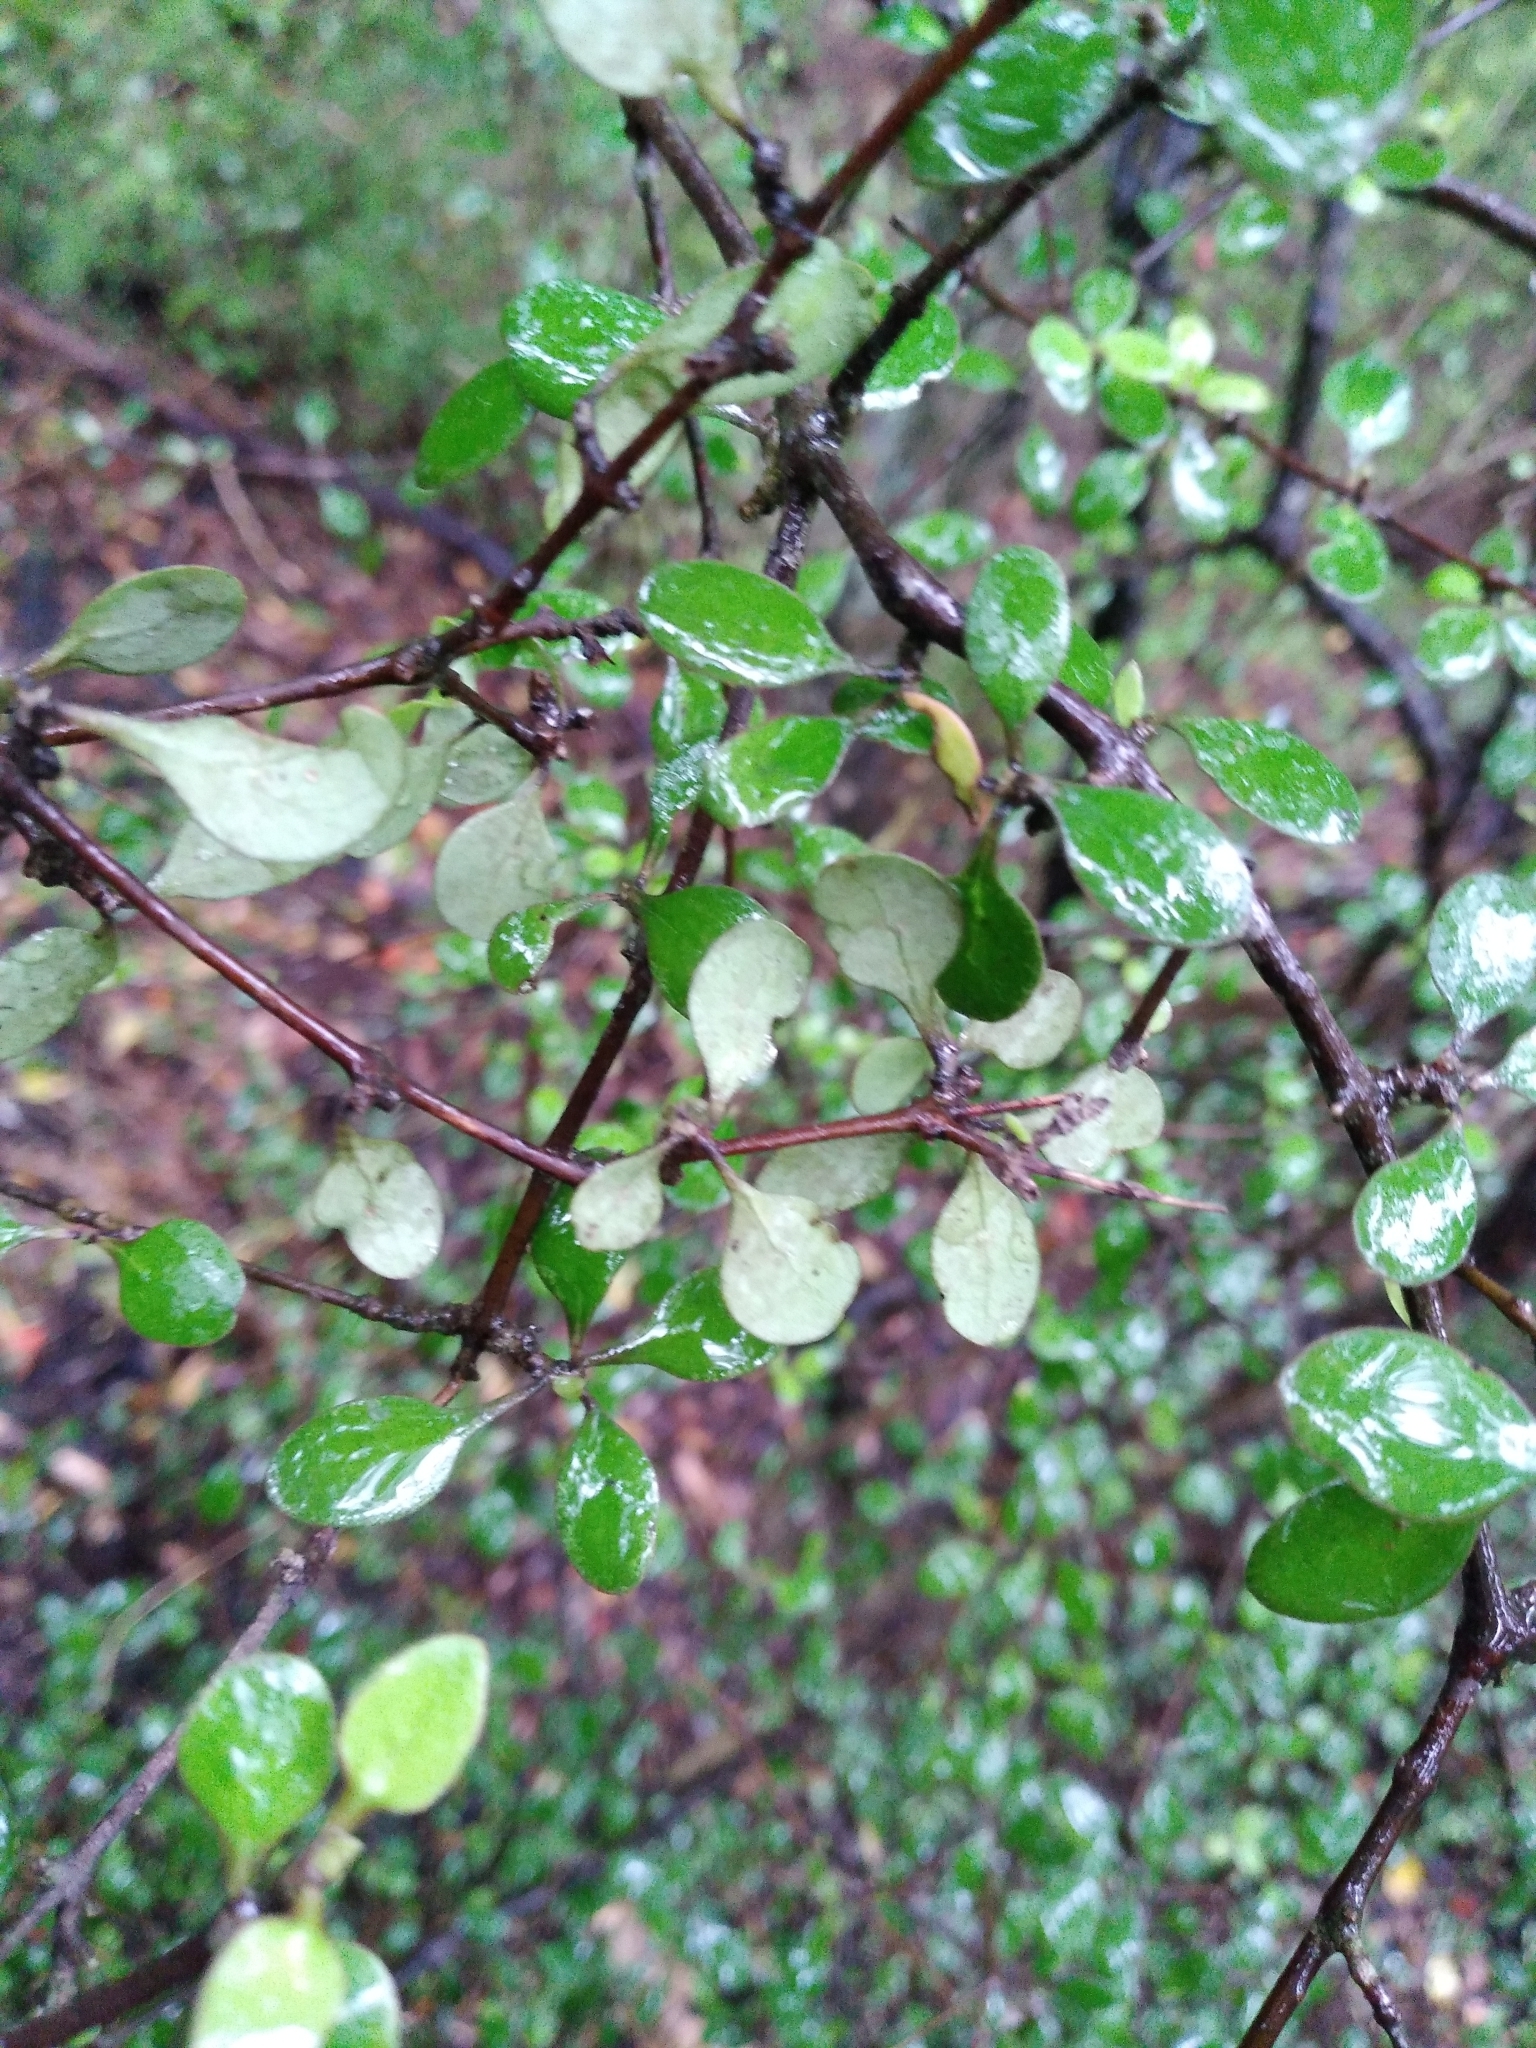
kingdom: Plantae
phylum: Tracheophyta
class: Magnoliopsida
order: Gentianales
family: Rubiaceae
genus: Coprosma
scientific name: Coprosma crassifolia
